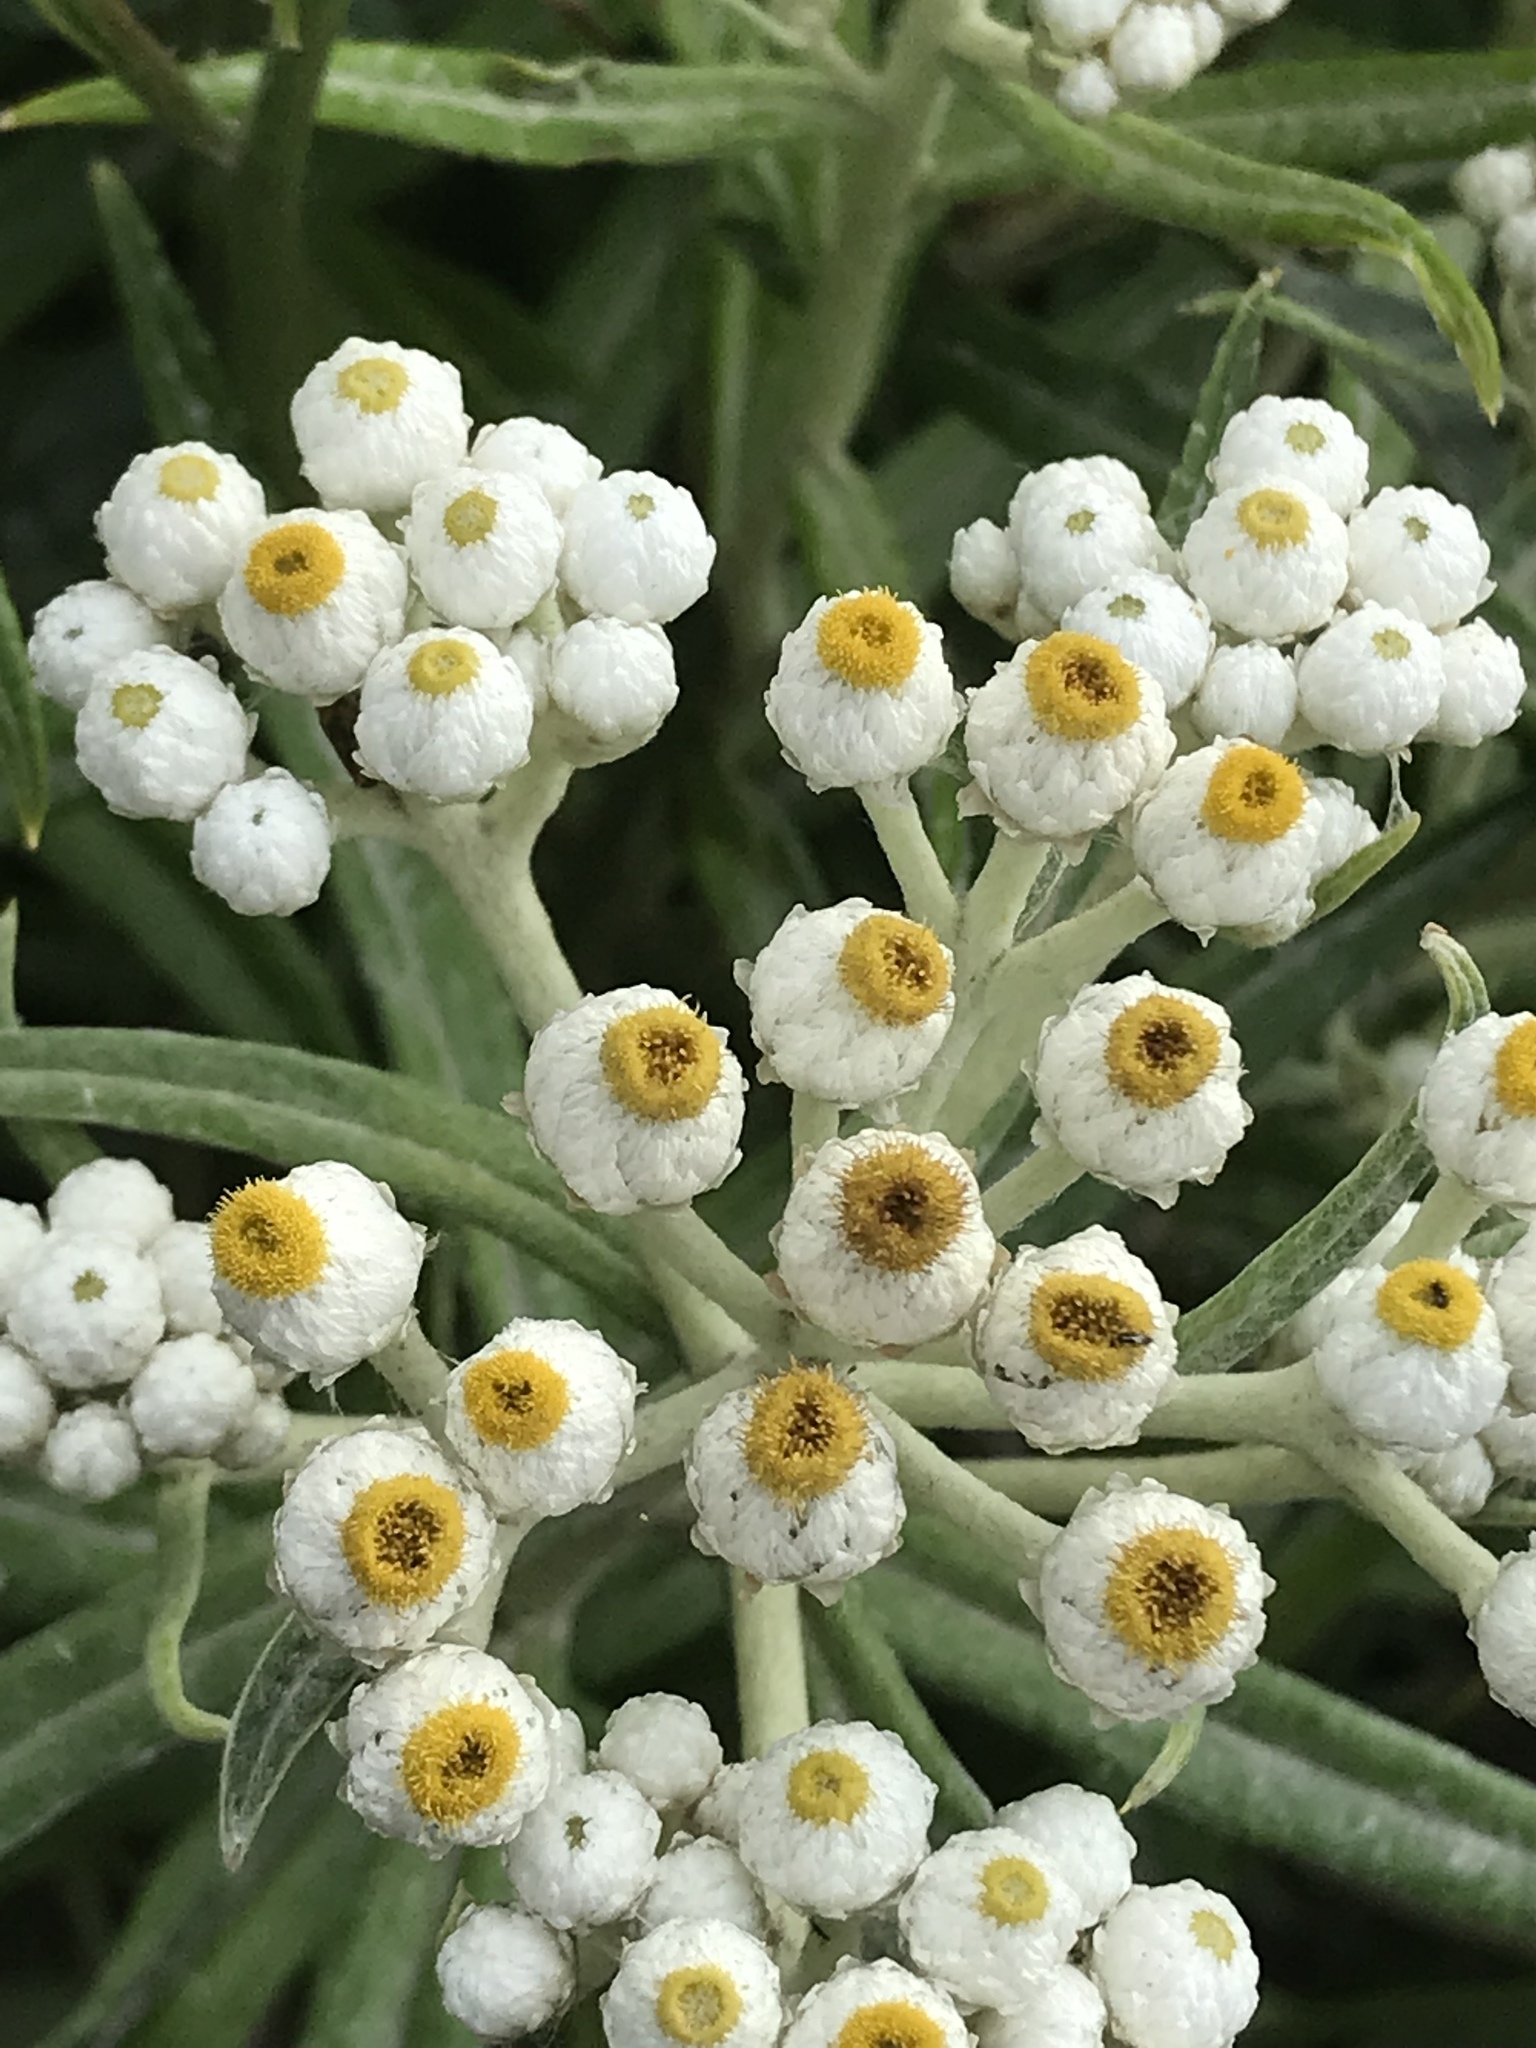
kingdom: Plantae
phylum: Tracheophyta
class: Magnoliopsida
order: Asterales
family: Asteraceae
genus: Anaphalis
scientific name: Anaphalis margaritacea
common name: Pearly everlasting
